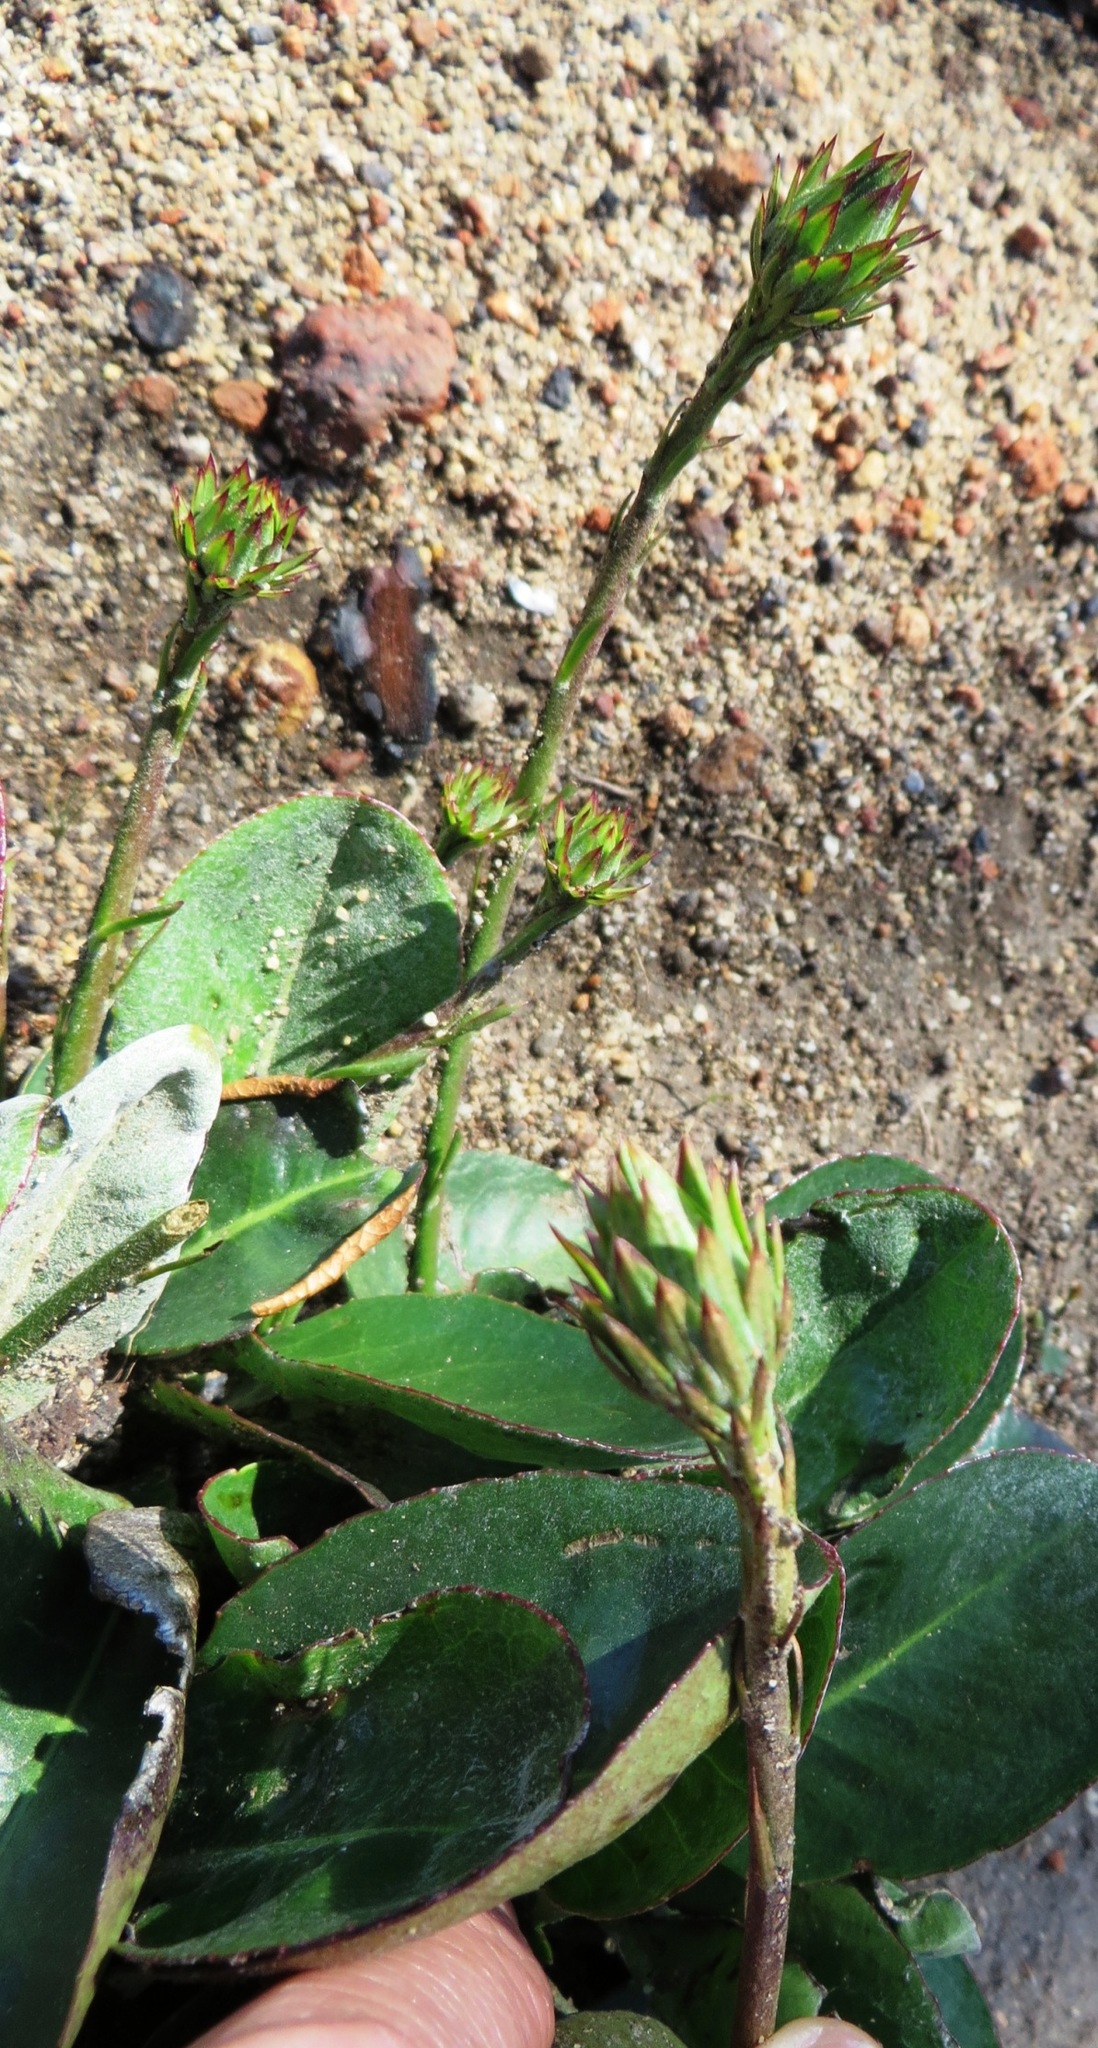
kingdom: Plantae
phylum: Tracheophyta
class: Magnoliopsida
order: Asterales
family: Asteraceae
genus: Gerbera
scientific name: Gerbera crocea
